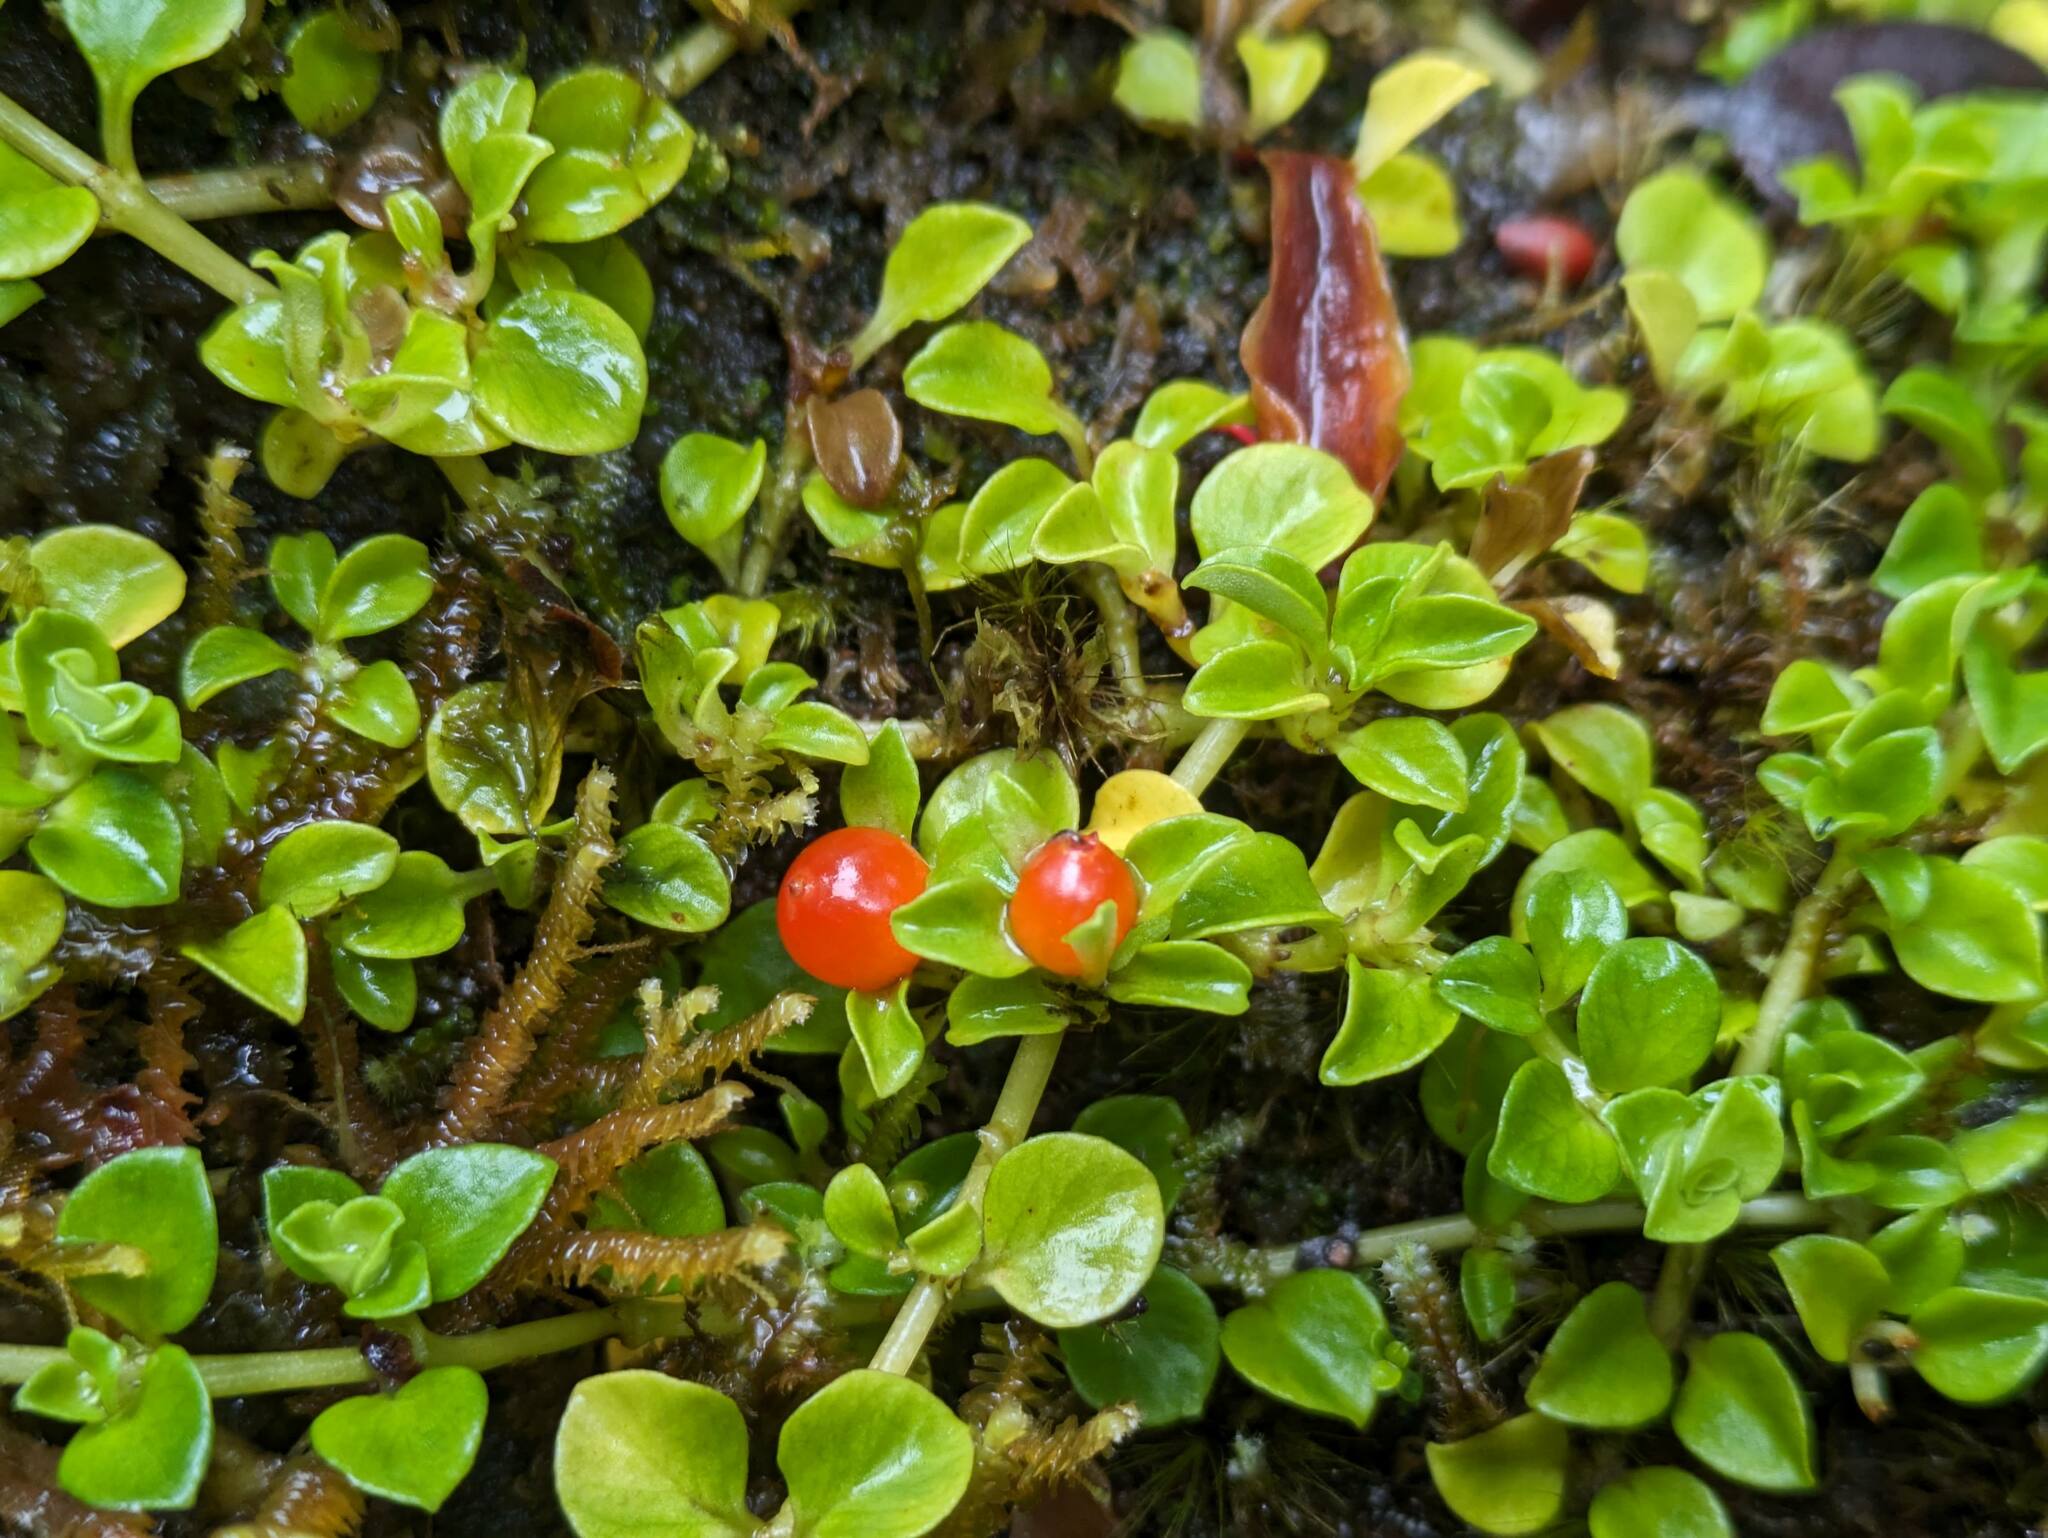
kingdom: Plantae
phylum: Tracheophyta
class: Magnoliopsida
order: Gentianales
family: Rubiaceae
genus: Nertera
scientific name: Nertera granadensis
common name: Beadplant
